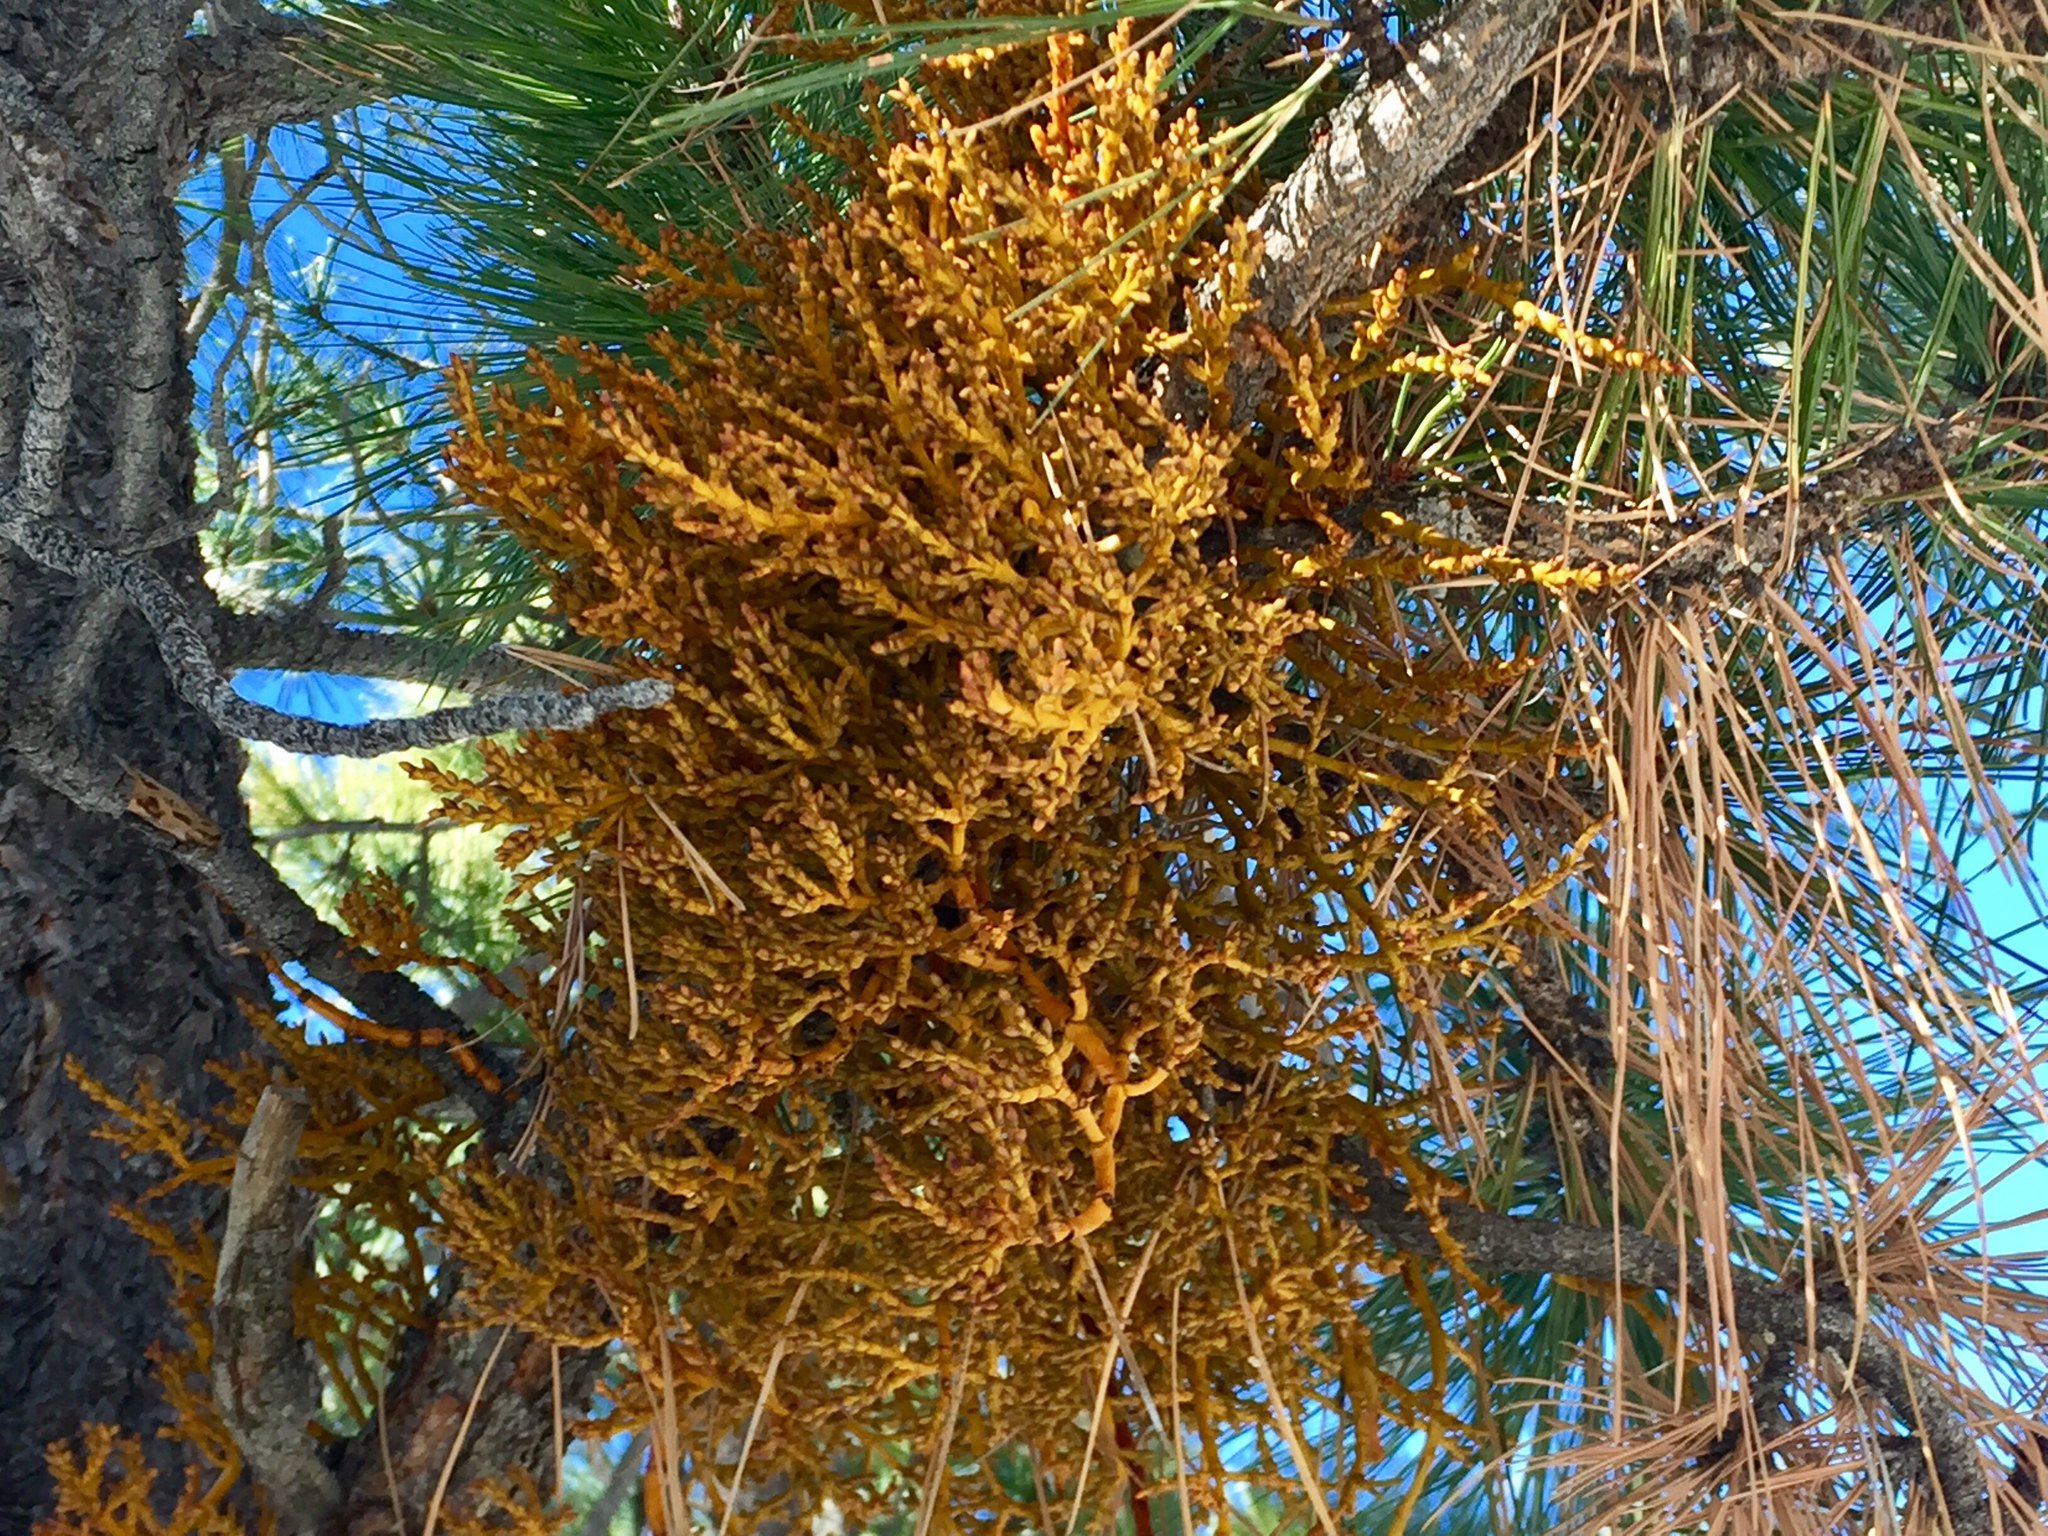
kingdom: Plantae
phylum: Tracheophyta
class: Magnoliopsida
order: Santalales
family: Viscaceae
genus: Arceuthobium
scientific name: Arceuthobium vaginatum
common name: Southwestern dwarf-mistletoe
